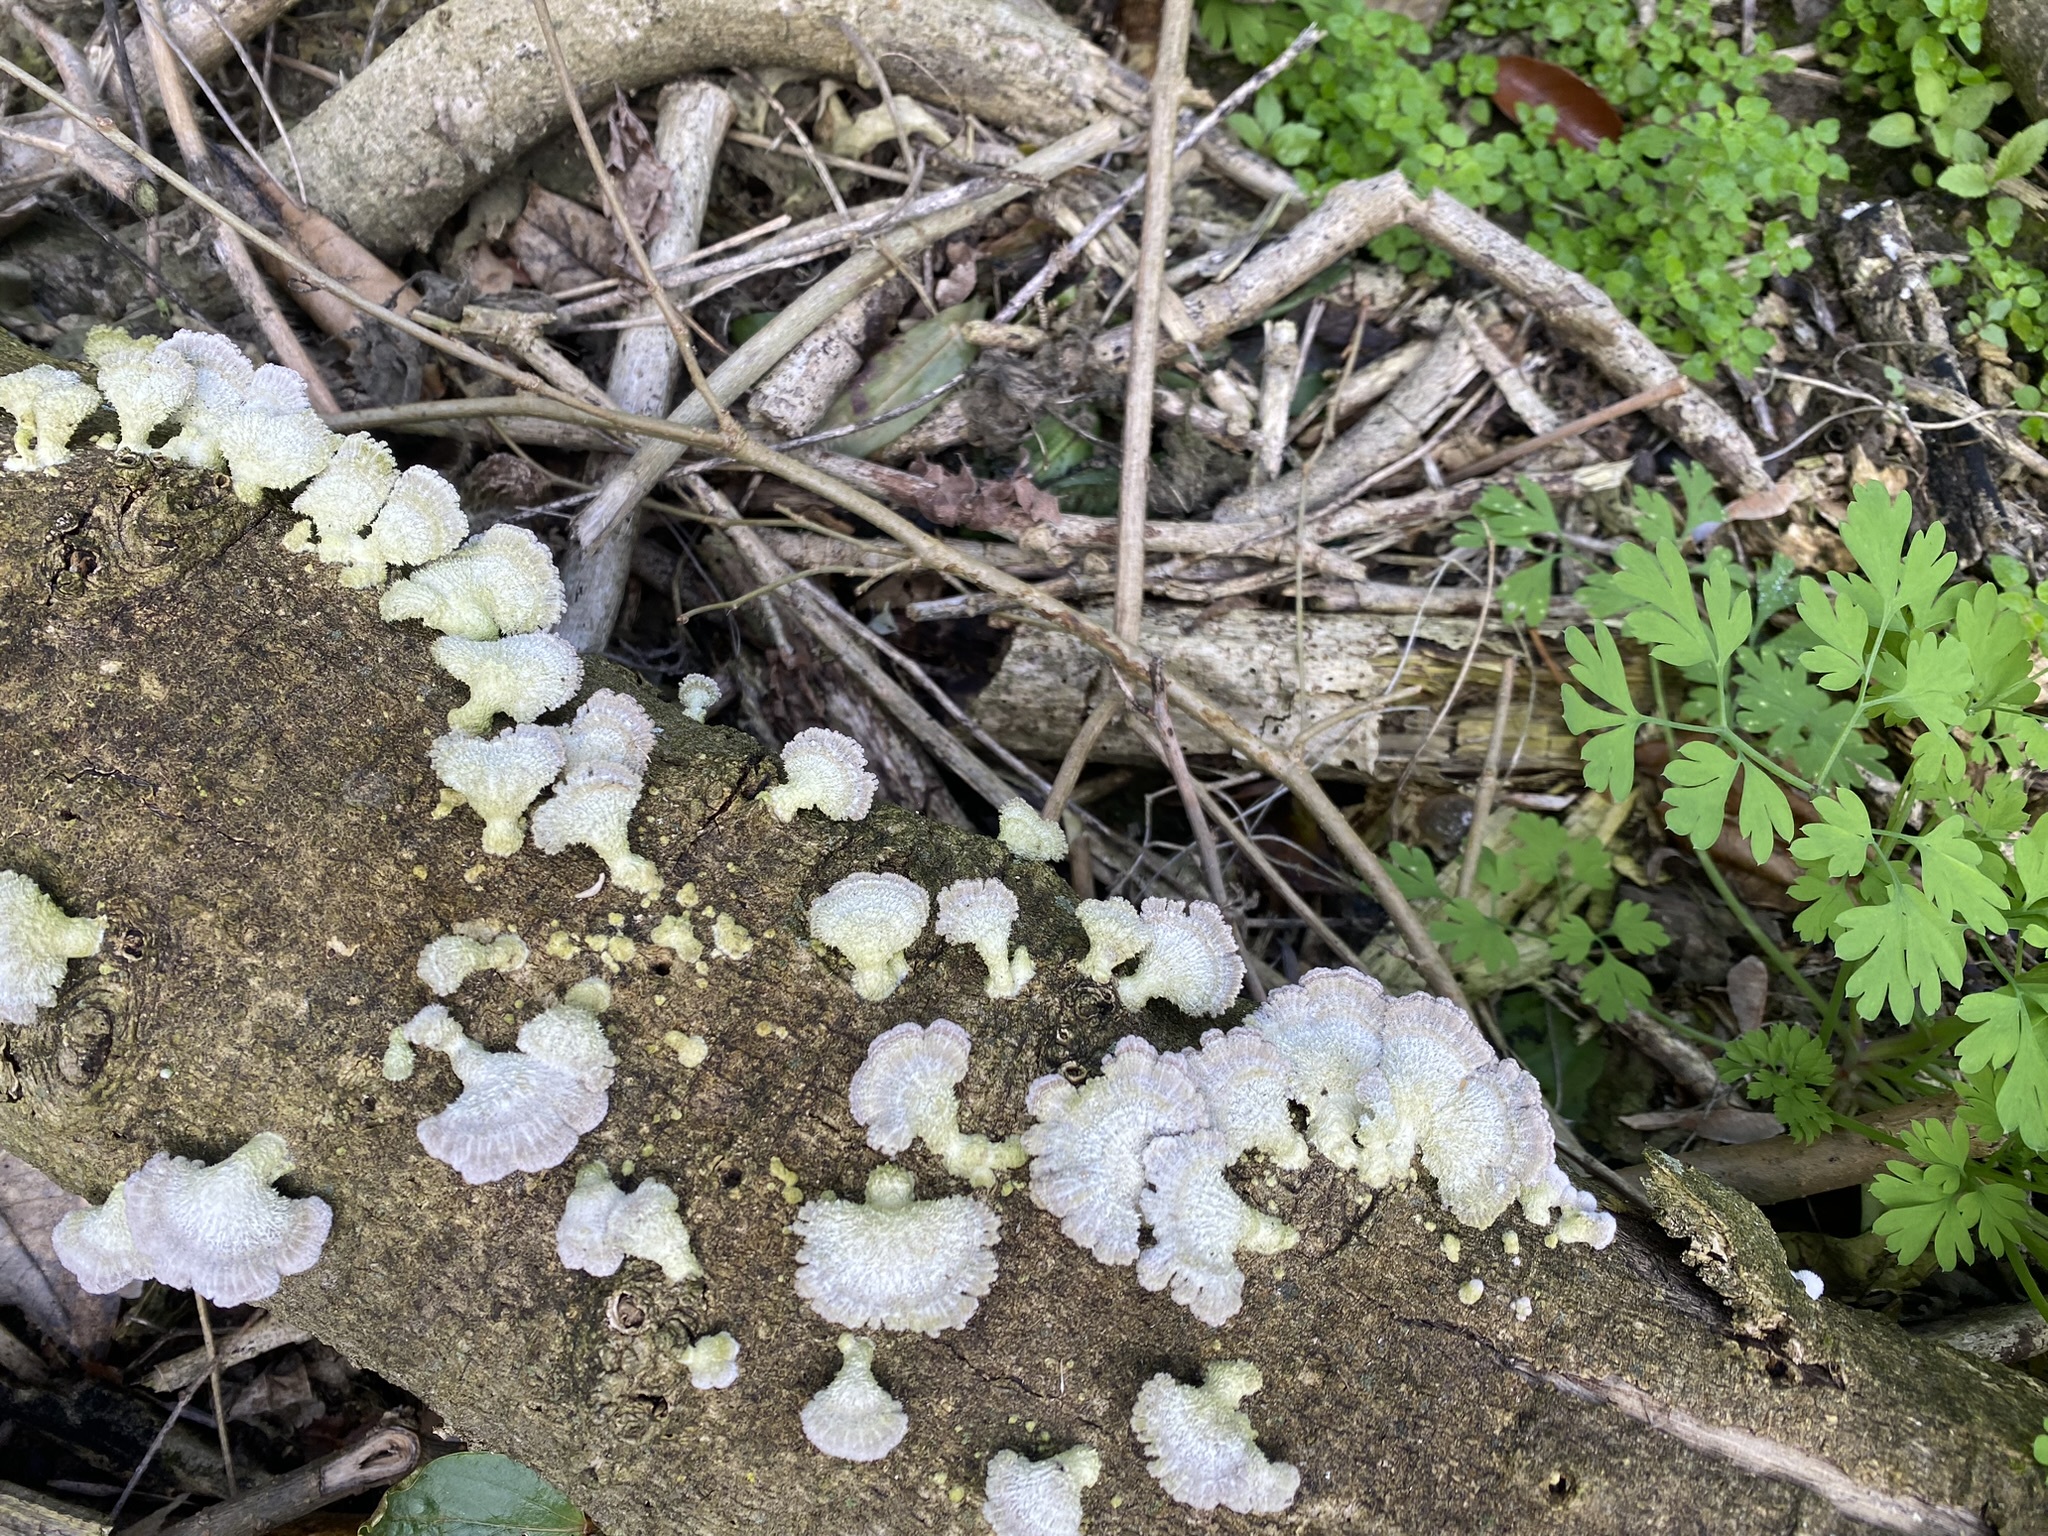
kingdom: Fungi
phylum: Basidiomycota
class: Agaricomycetes
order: Agaricales
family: Schizophyllaceae
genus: Schizophyllum
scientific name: Schizophyllum commune
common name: Common porecrust
